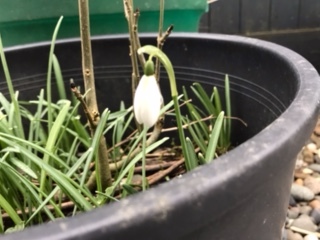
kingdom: Plantae
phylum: Tracheophyta
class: Liliopsida
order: Asparagales
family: Amaryllidaceae
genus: Galanthus
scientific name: Galanthus nivalis
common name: Snowdrop
